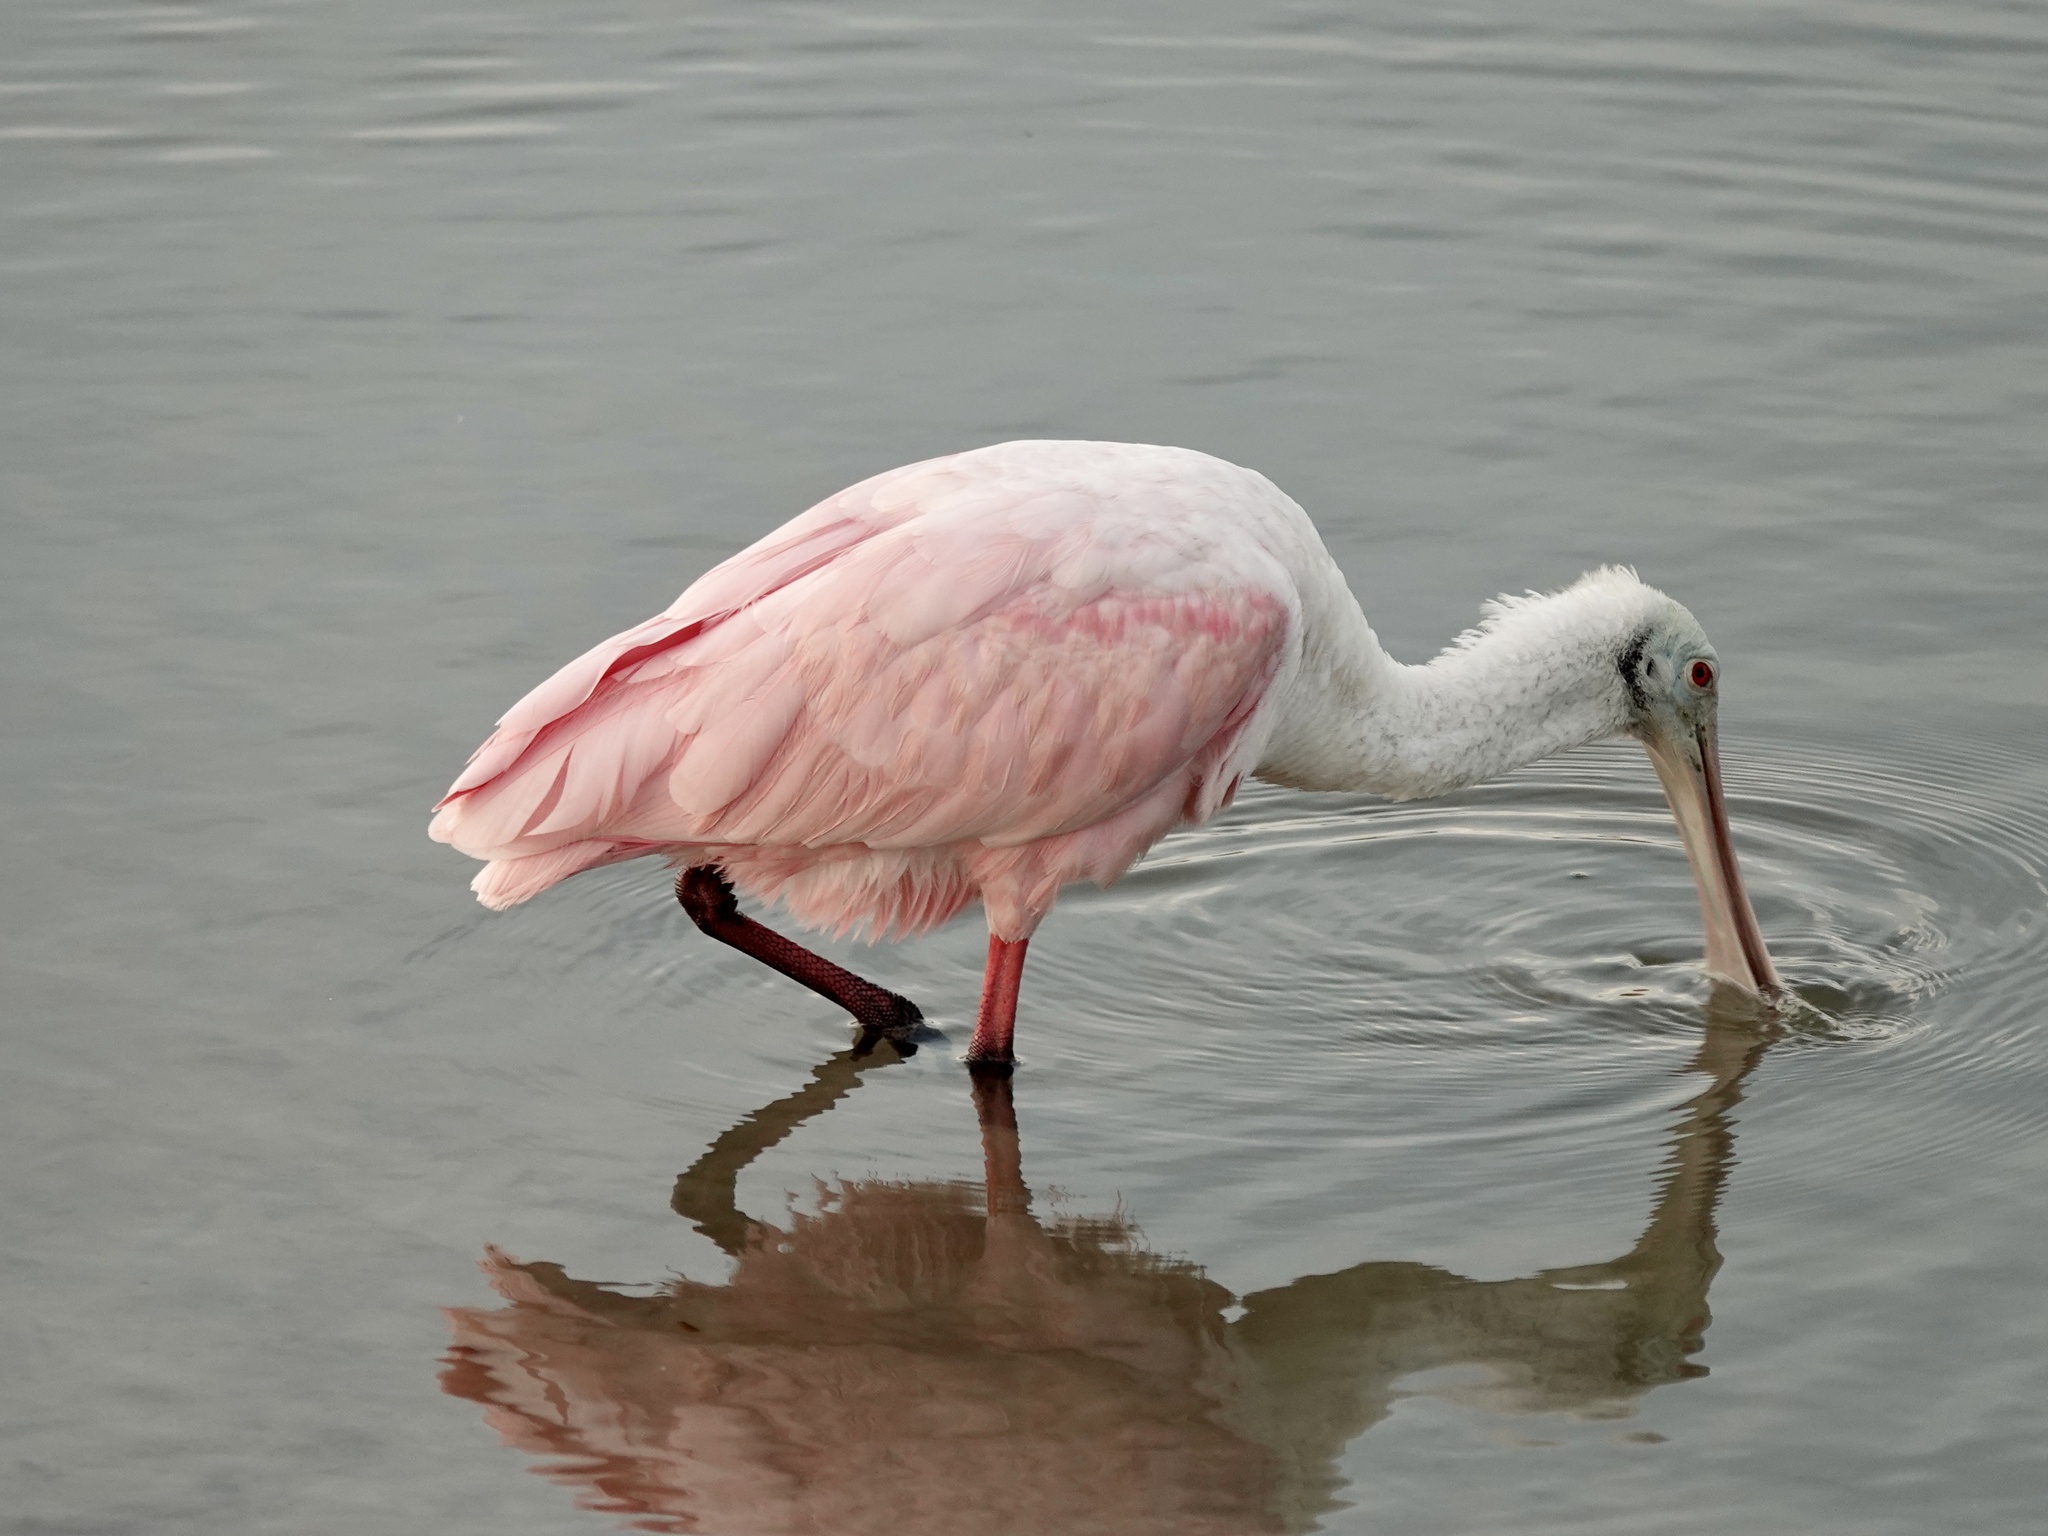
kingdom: Animalia
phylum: Chordata
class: Aves
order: Pelecaniformes
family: Threskiornithidae
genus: Platalea
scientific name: Platalea ajaja
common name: Roseate spoonbill
